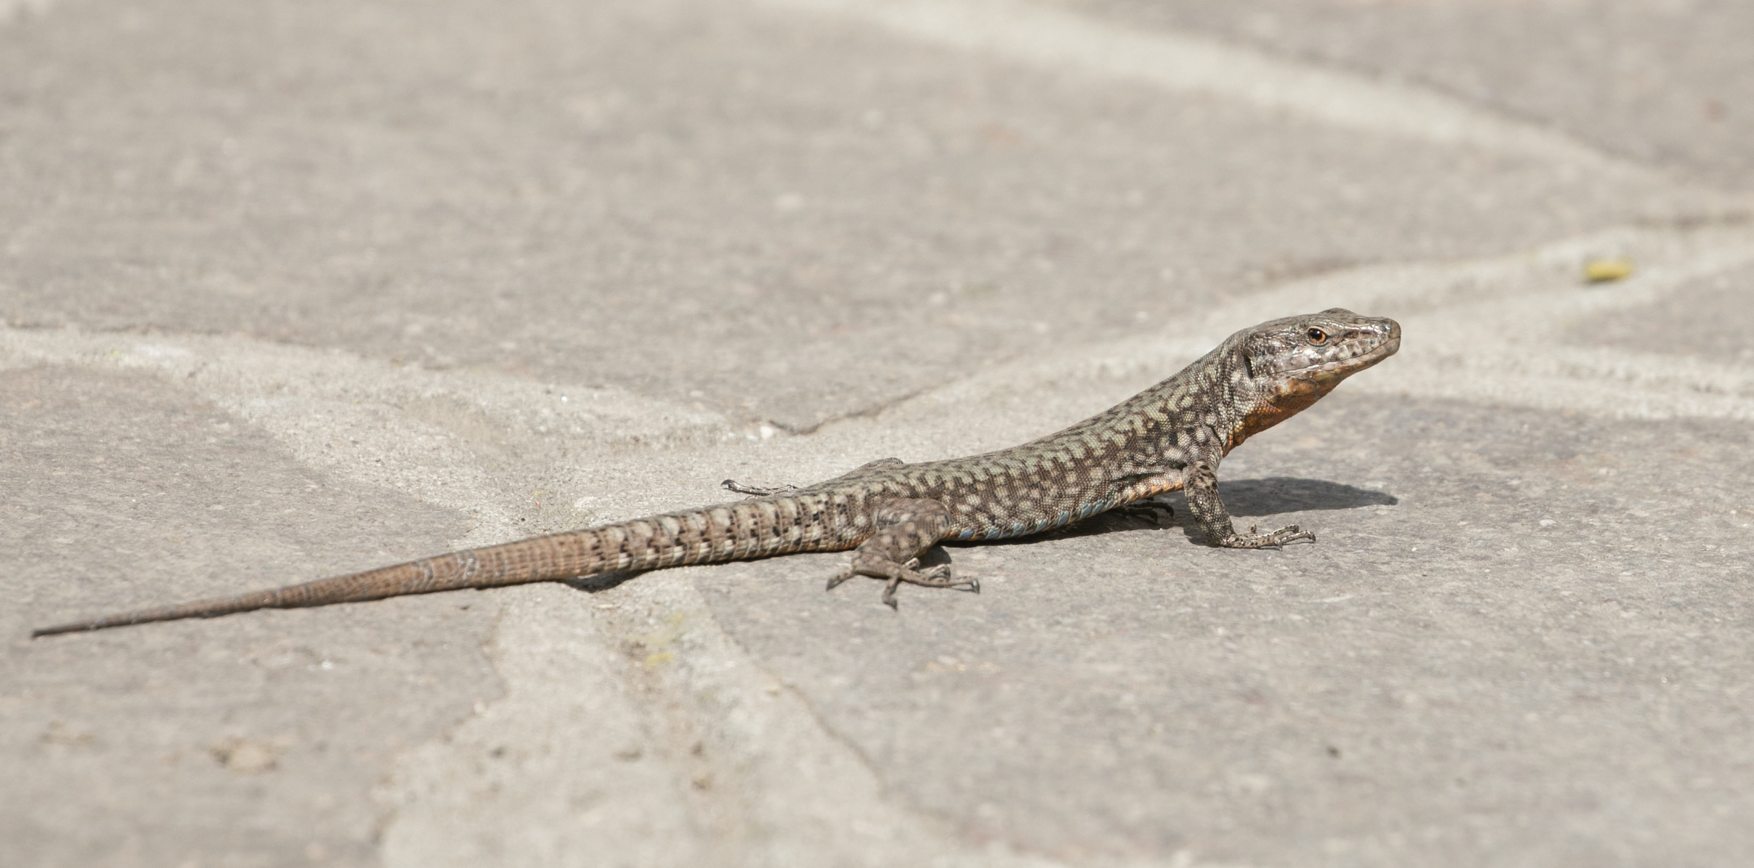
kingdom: Animalia
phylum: Chordata
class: Squamata
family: Lacertidae
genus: Podarcis
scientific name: Podarcis muralis
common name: Common wall lizard
